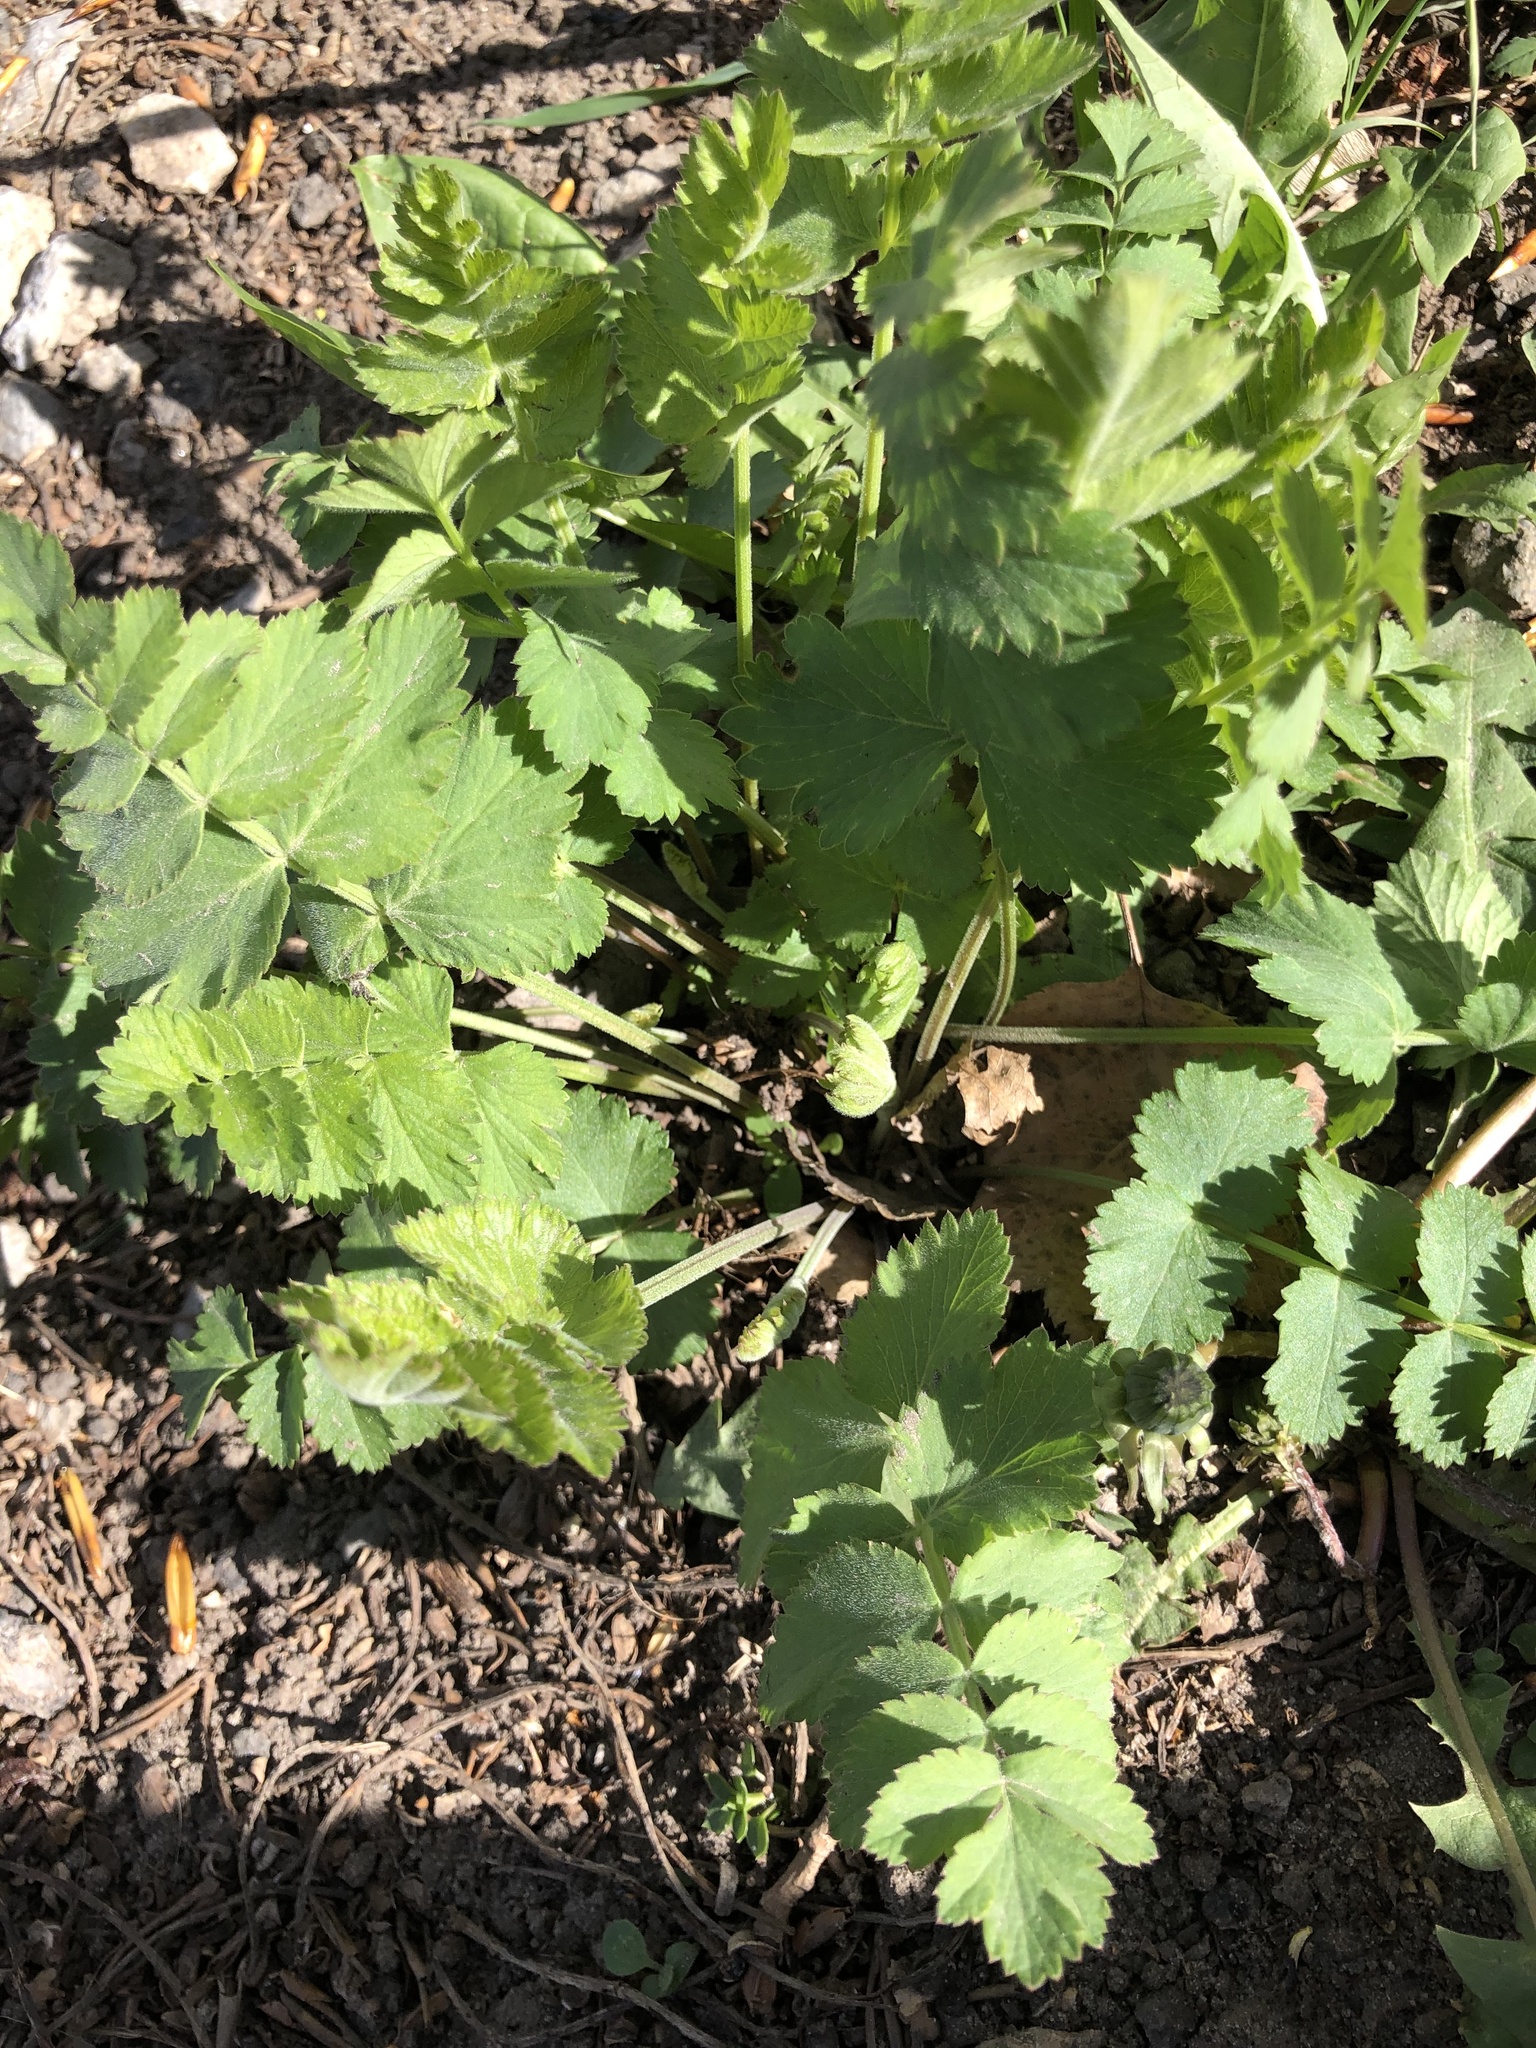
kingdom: Plantae
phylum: Tracheophyta
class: Magnoliopsida
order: Apiales
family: Apiaceae
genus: Pastinaca
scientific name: Pastinaca sativa
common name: Wild parsnip
